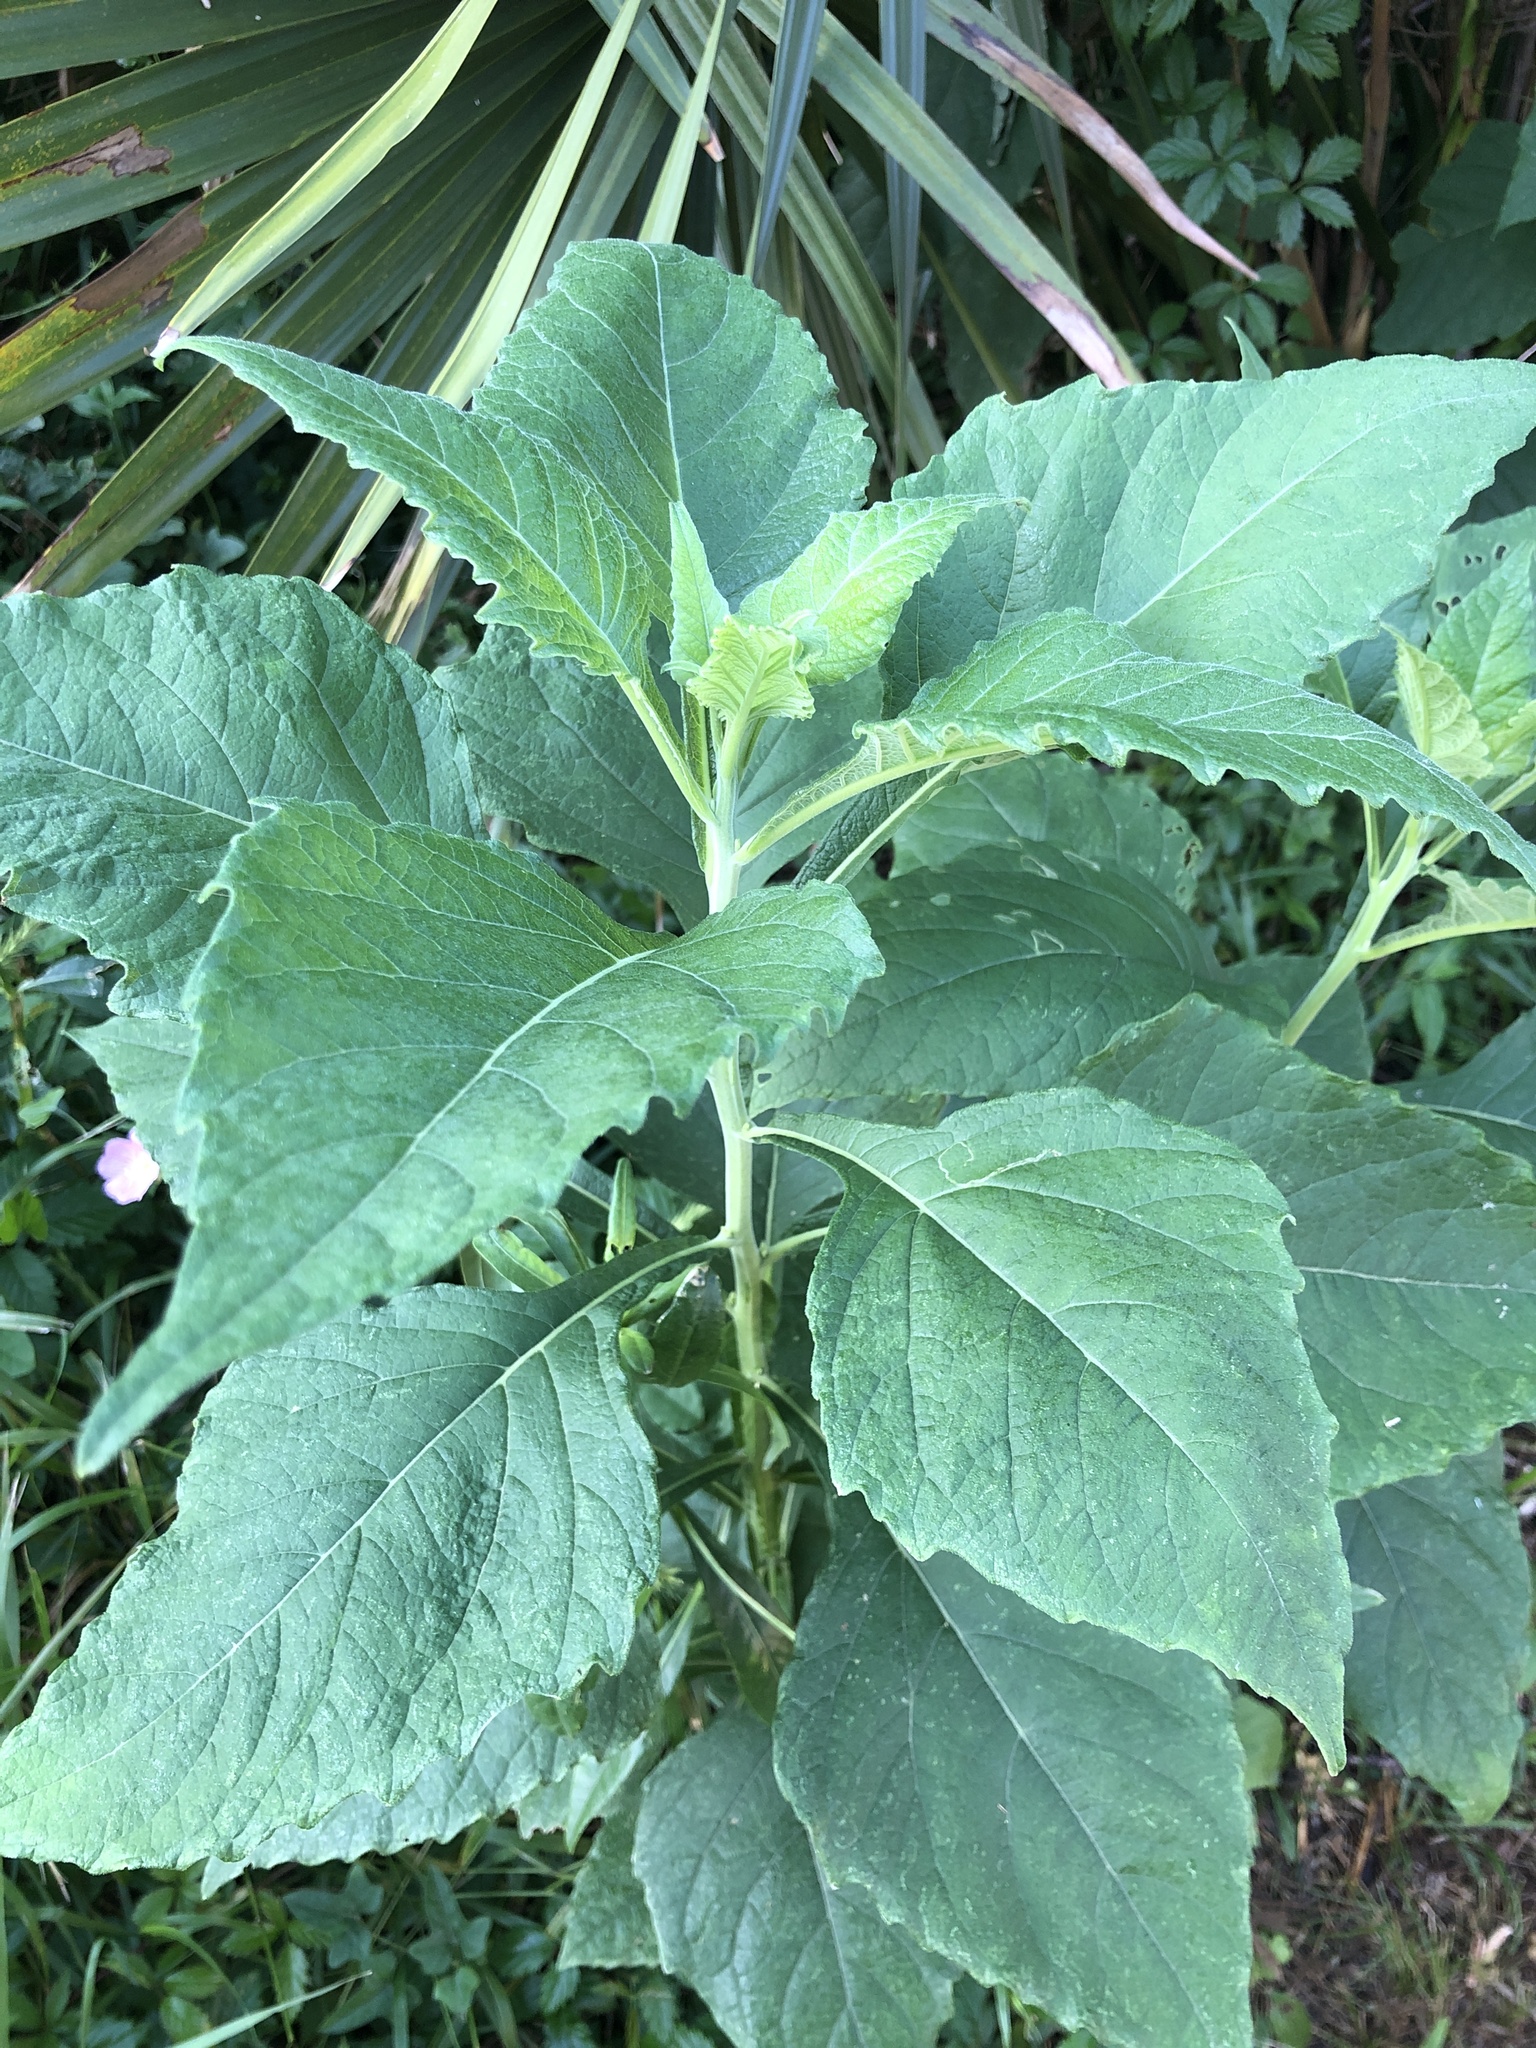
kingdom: Plantae
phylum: Tracheophyta
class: Magnoliopsida
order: Asterales
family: Asteraceae
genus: Verbesina
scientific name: Verbesina virginica
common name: Frostweed
